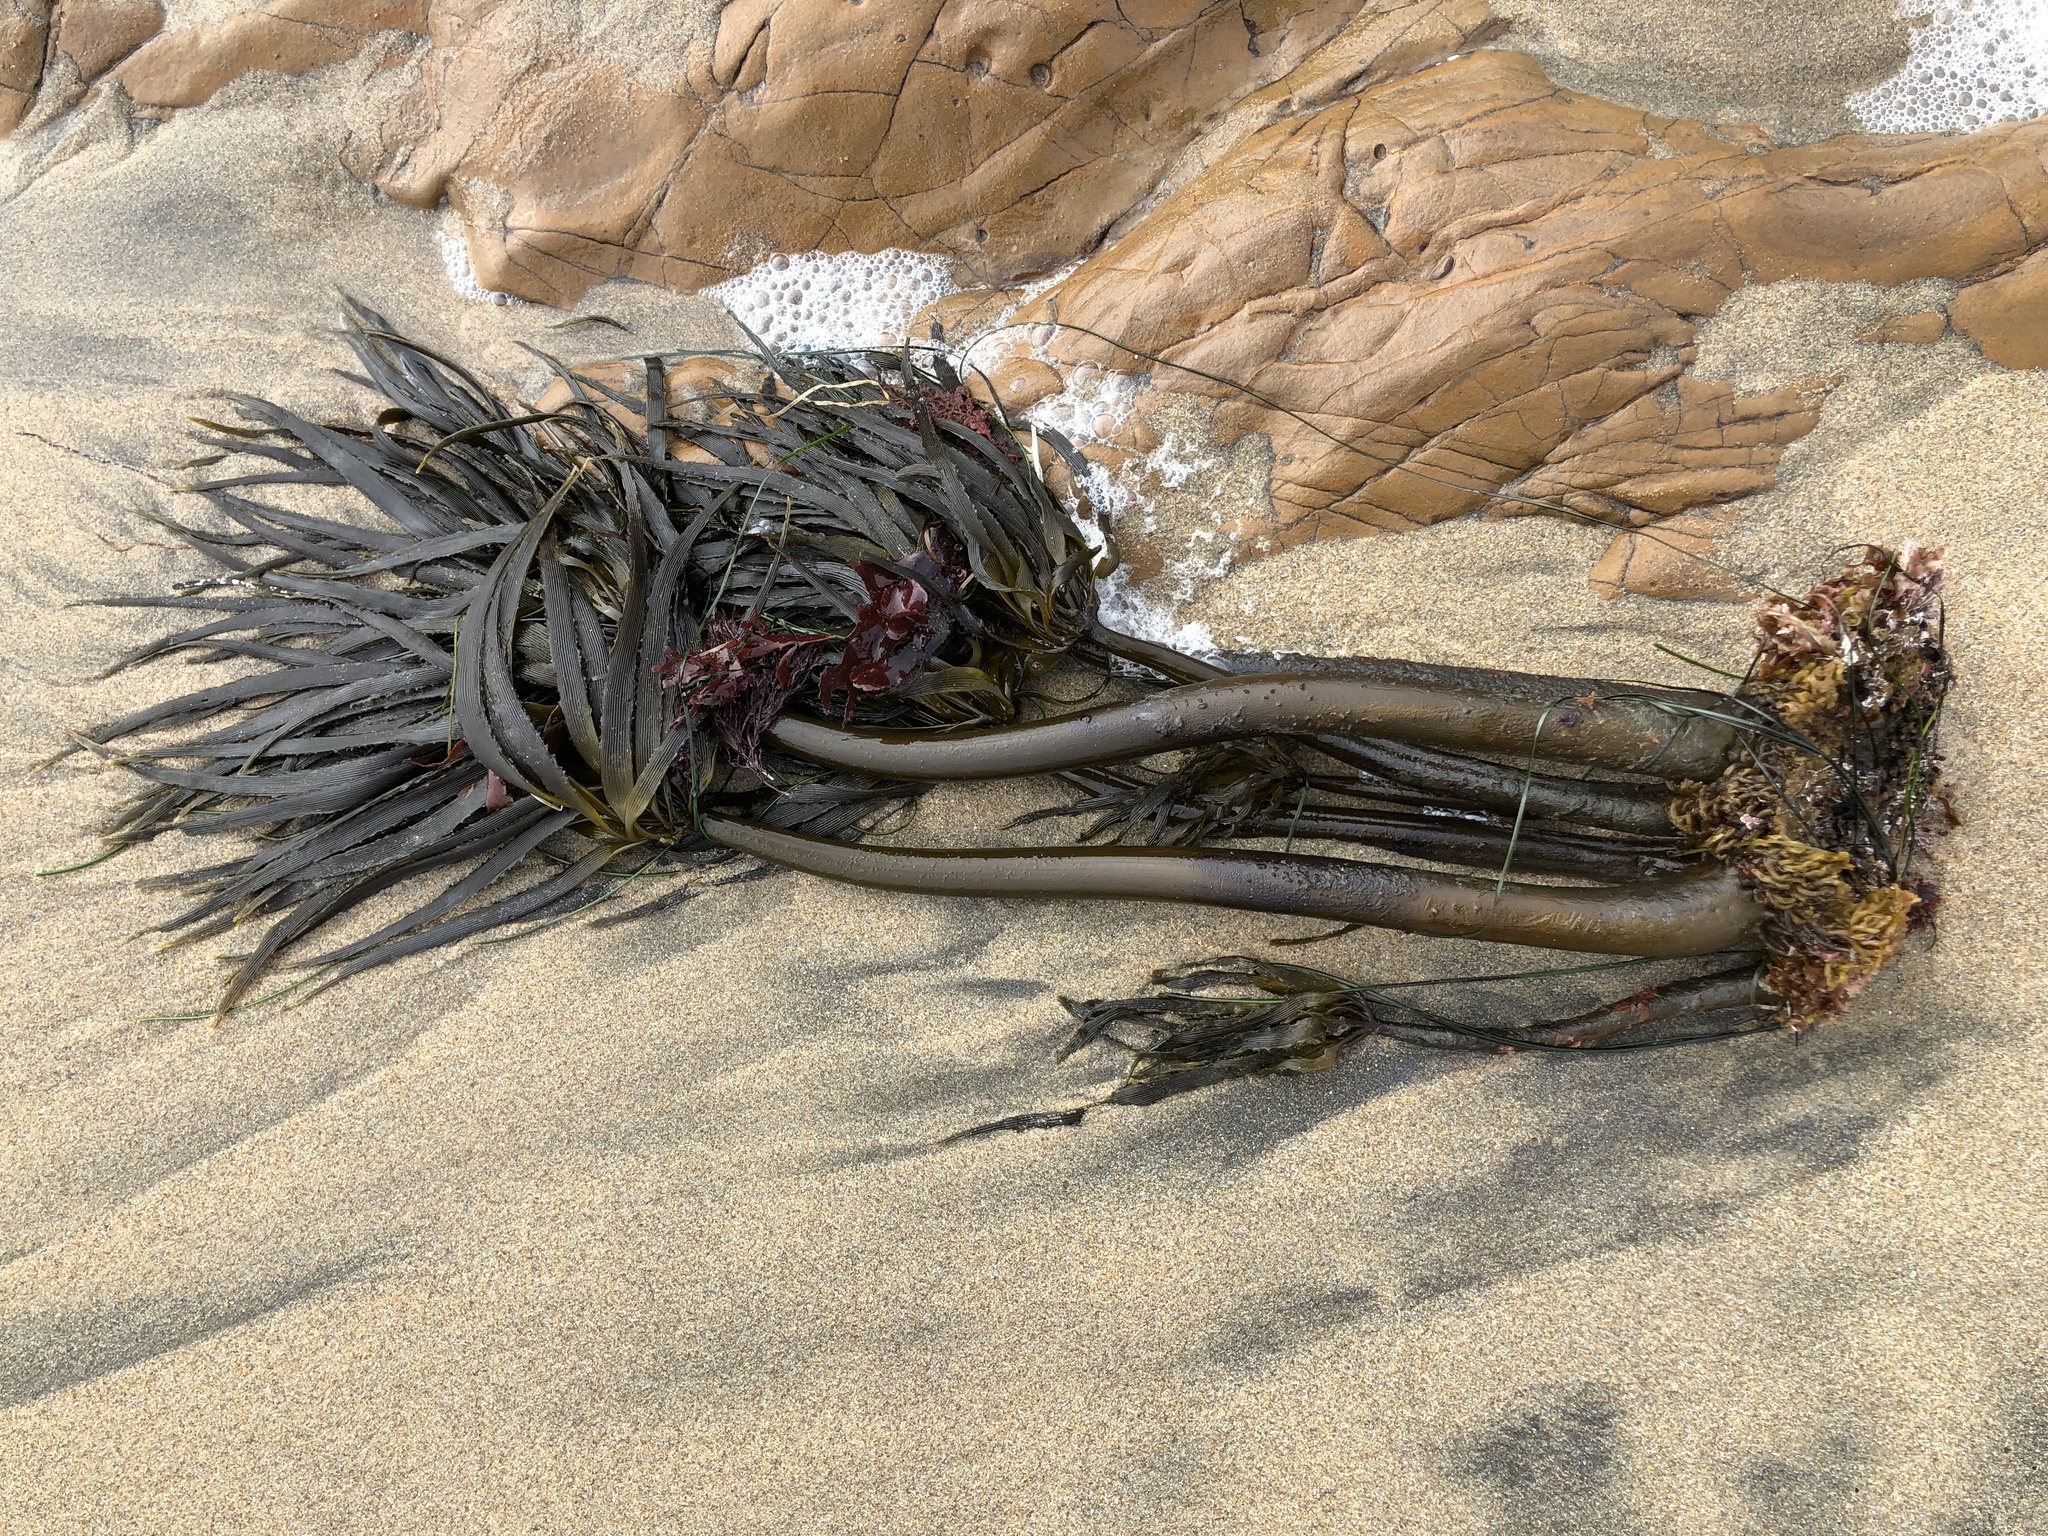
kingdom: Chromista
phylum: Ochrophyta
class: Phaeophyceae
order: Laminariales
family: Laminariaceae
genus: Postelsia
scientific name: Postelsia palmiformis
